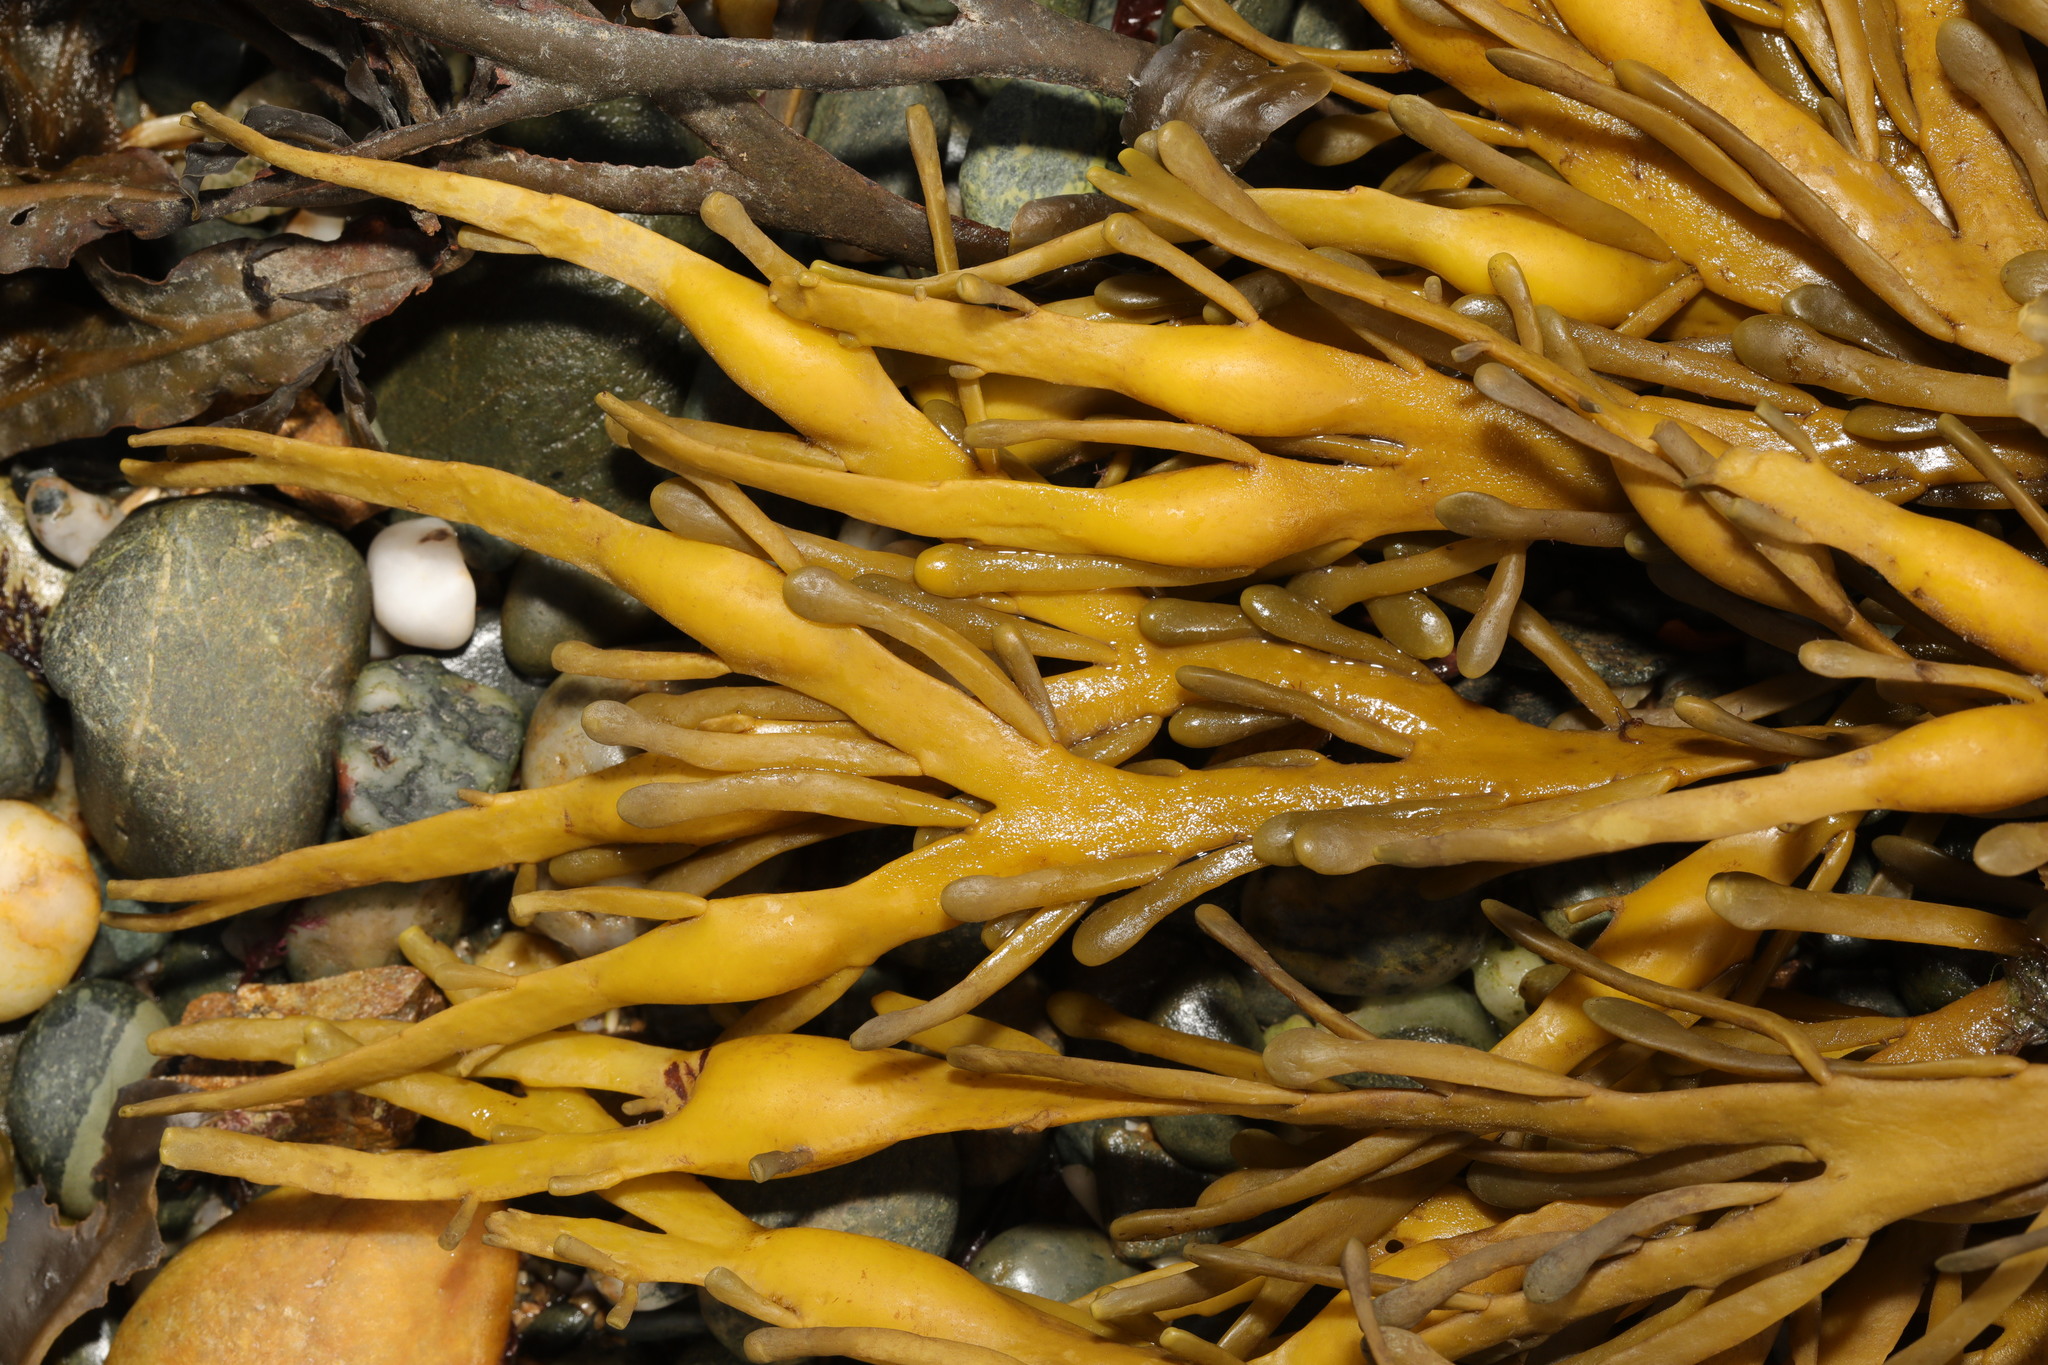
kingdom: Chromista
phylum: Ochrophyta
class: Phaeophyceae
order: Fucales
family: Fucaceae
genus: Ascophyllum
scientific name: Ascophyllum nodosum
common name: Knotted wrack
